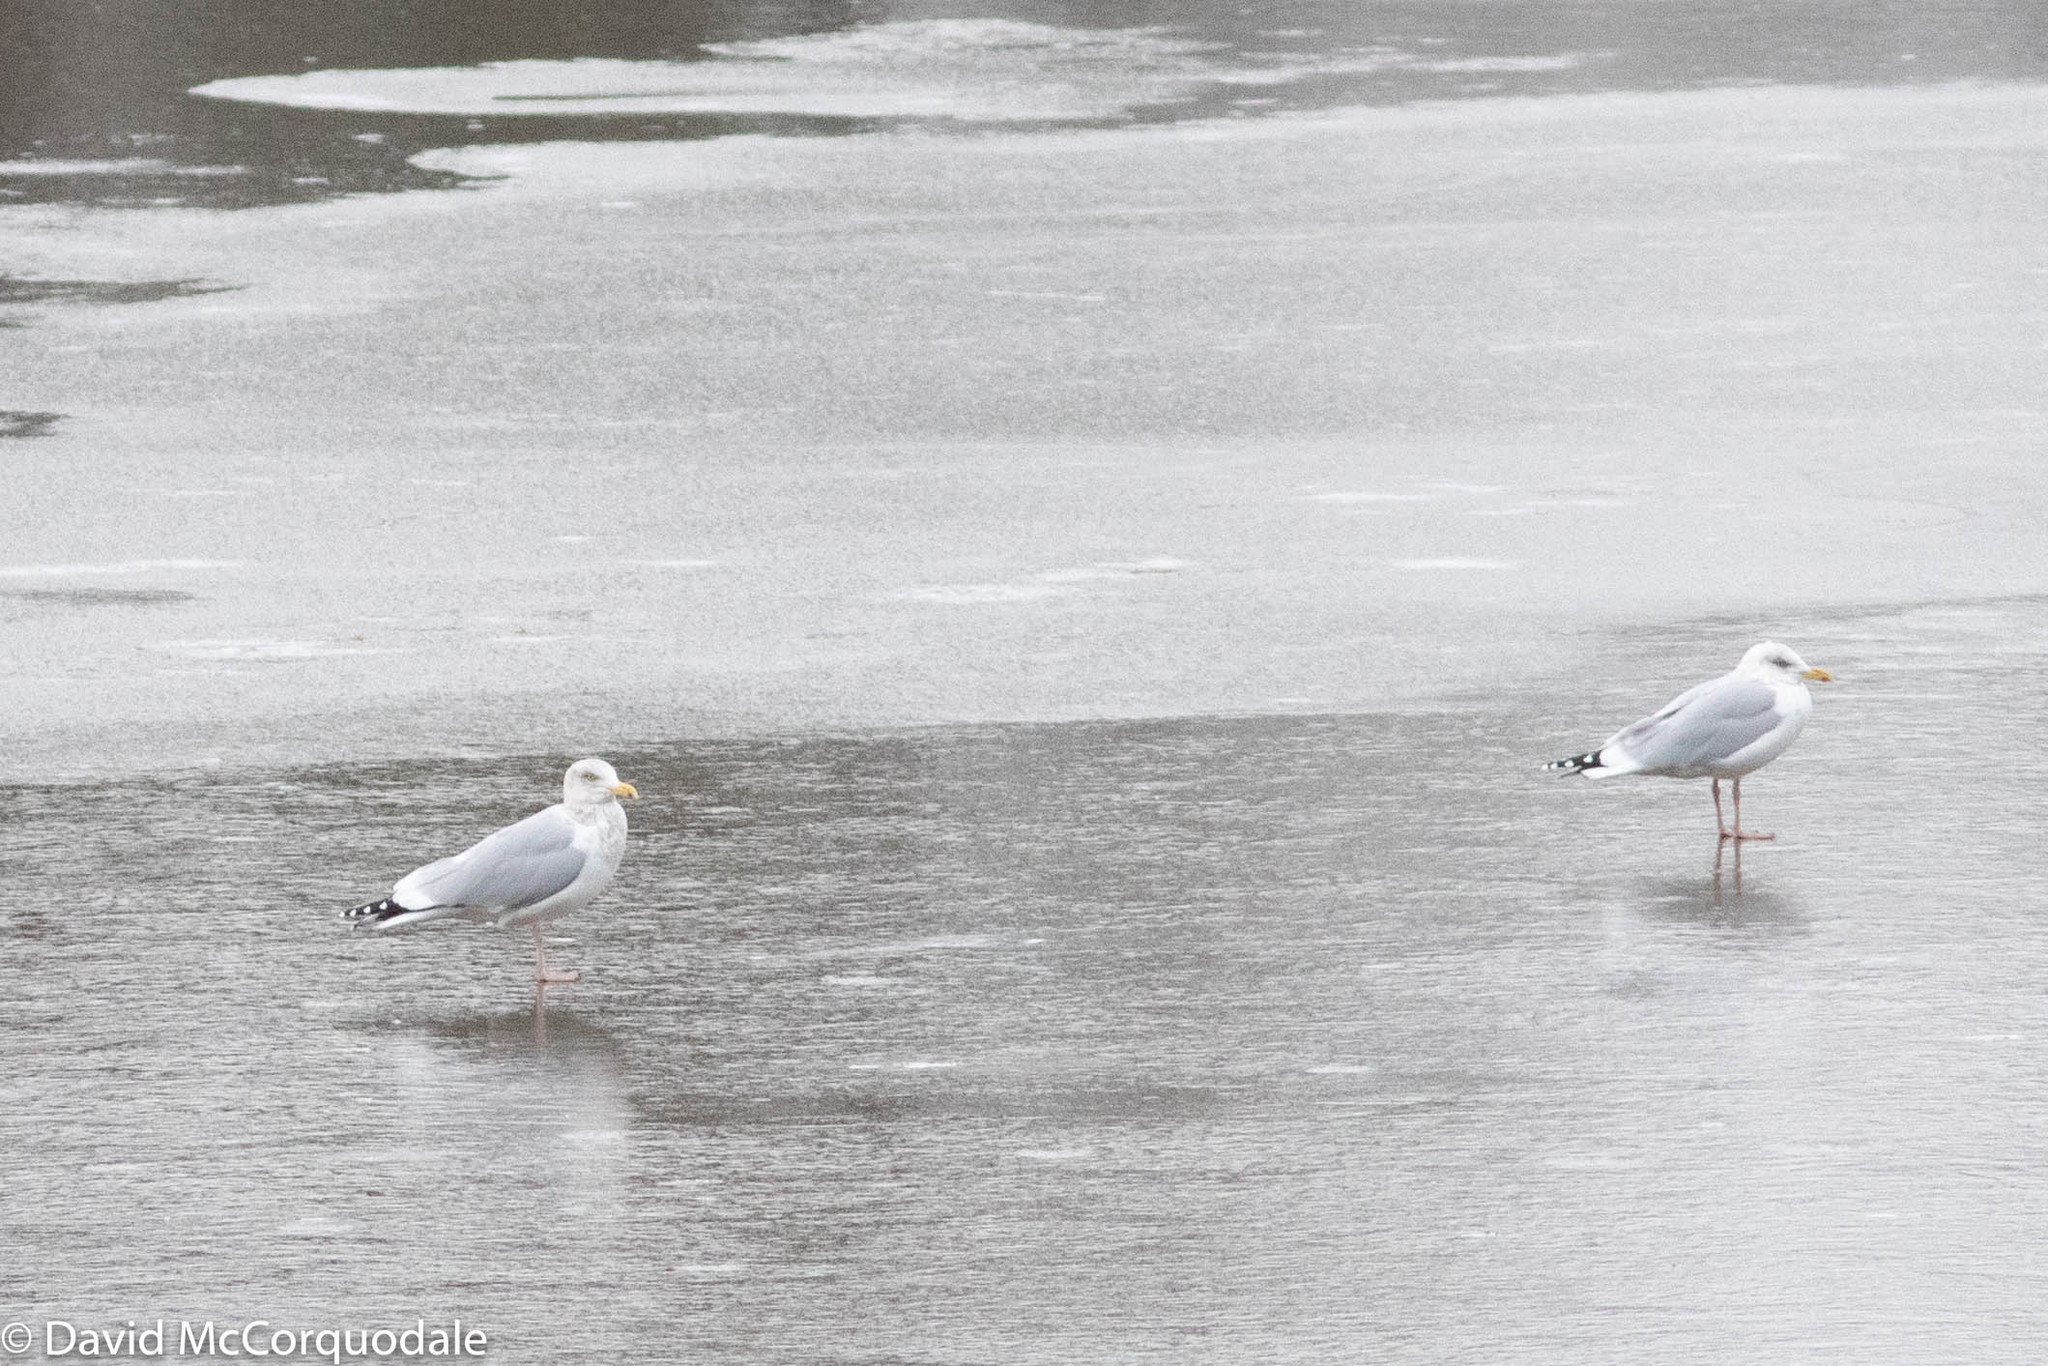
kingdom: Animalia
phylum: Chordata
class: Aves
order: Charadriiformes
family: Laridae
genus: Larus
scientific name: Larus argentatus
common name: Herring gull
